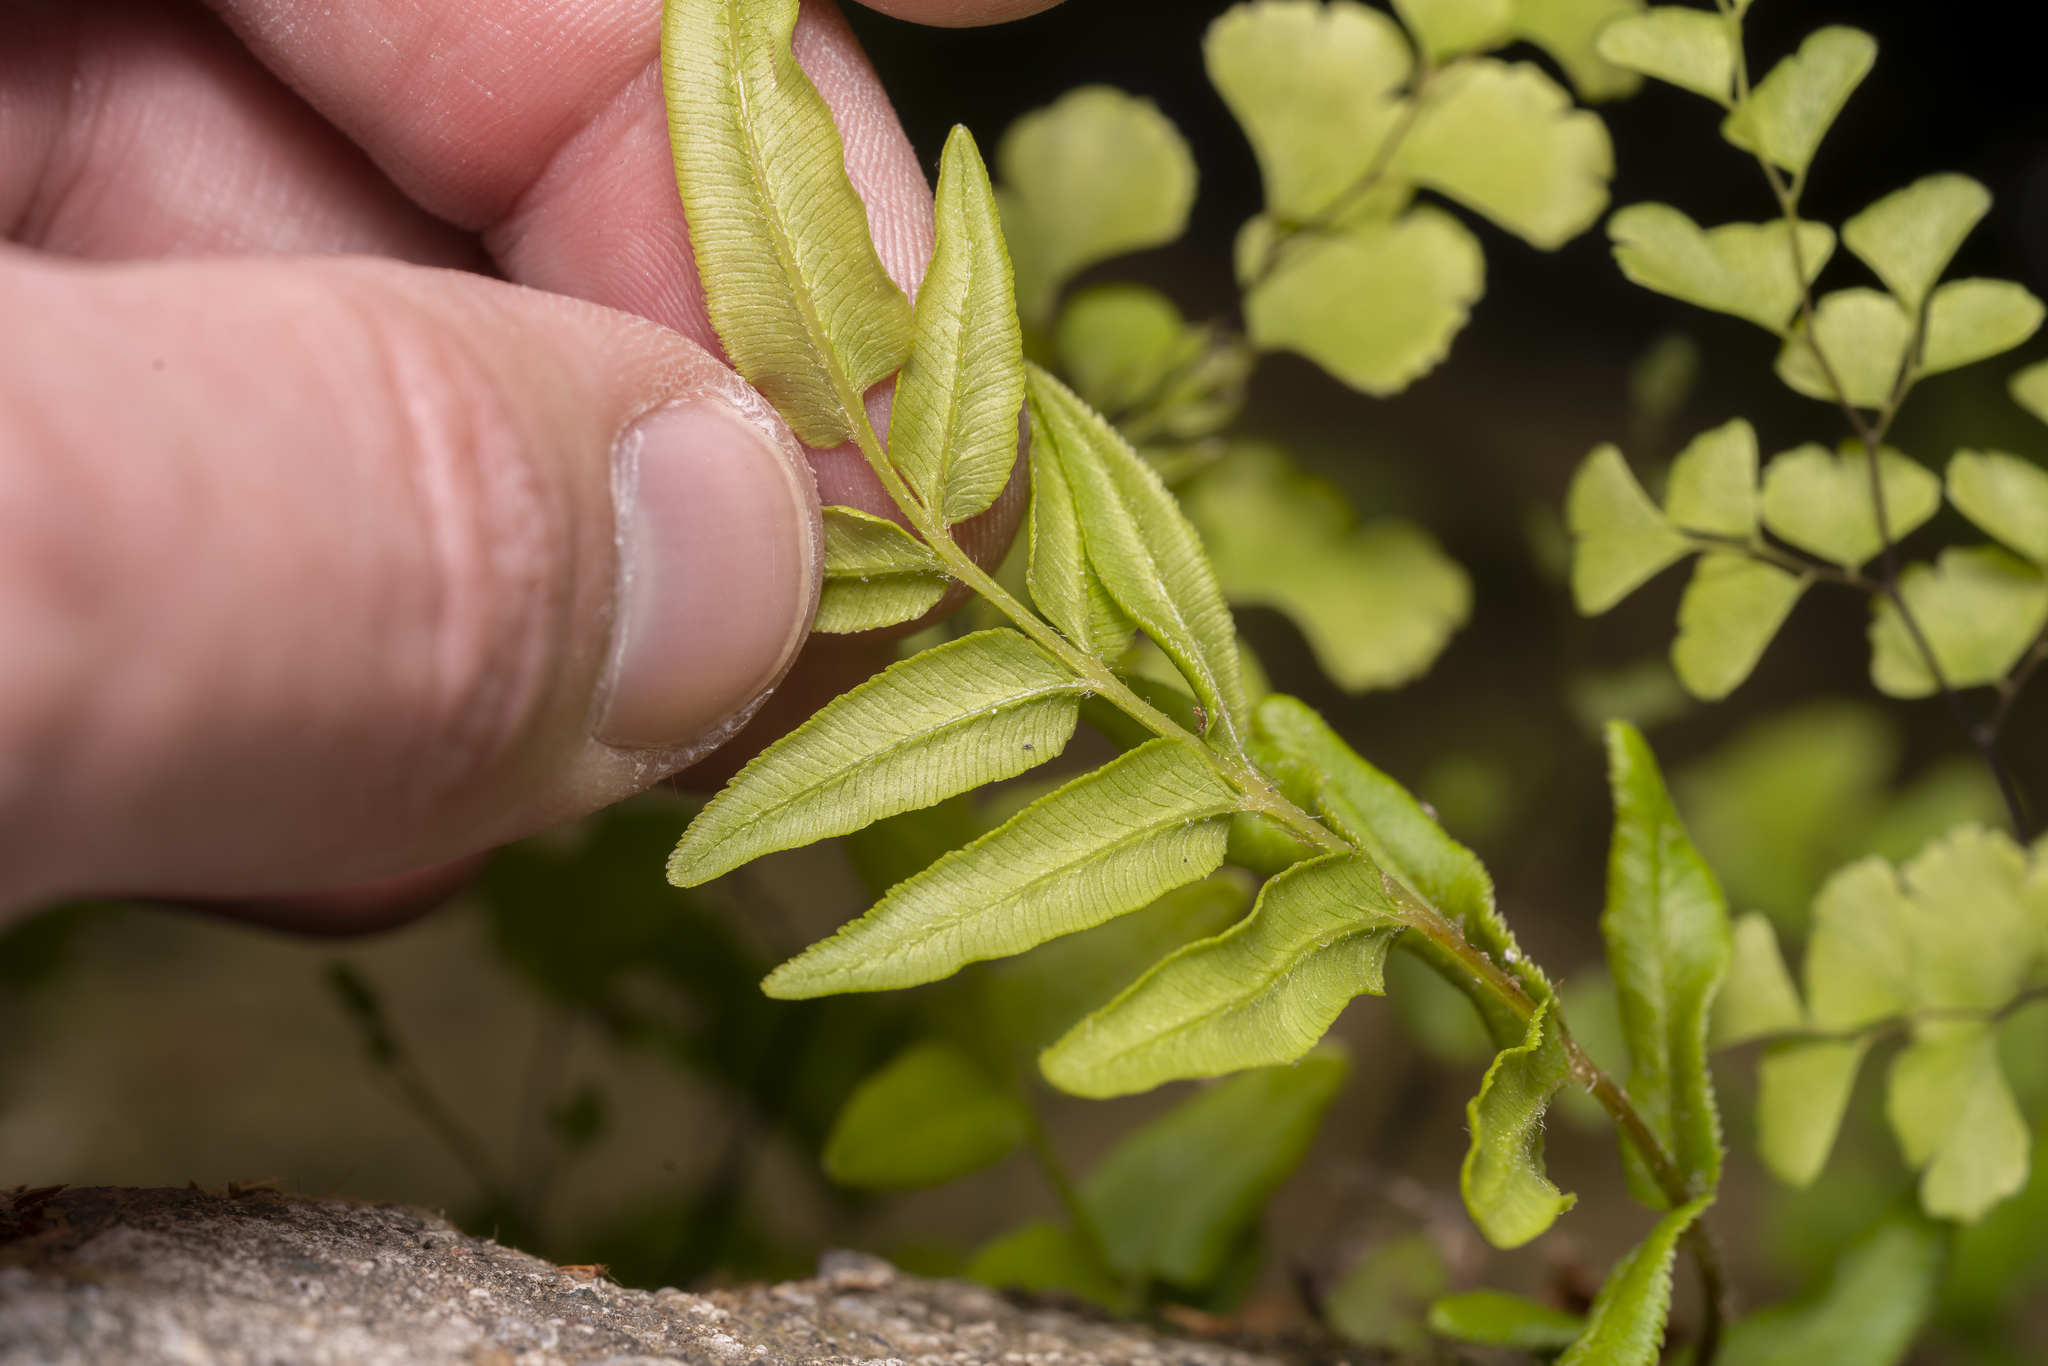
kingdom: Plantae
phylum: Tracheophyta
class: Polypodiopsida
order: Polypodiales
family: Pteridaceae
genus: Pteris
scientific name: Pteris vittata
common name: Ladder brake
